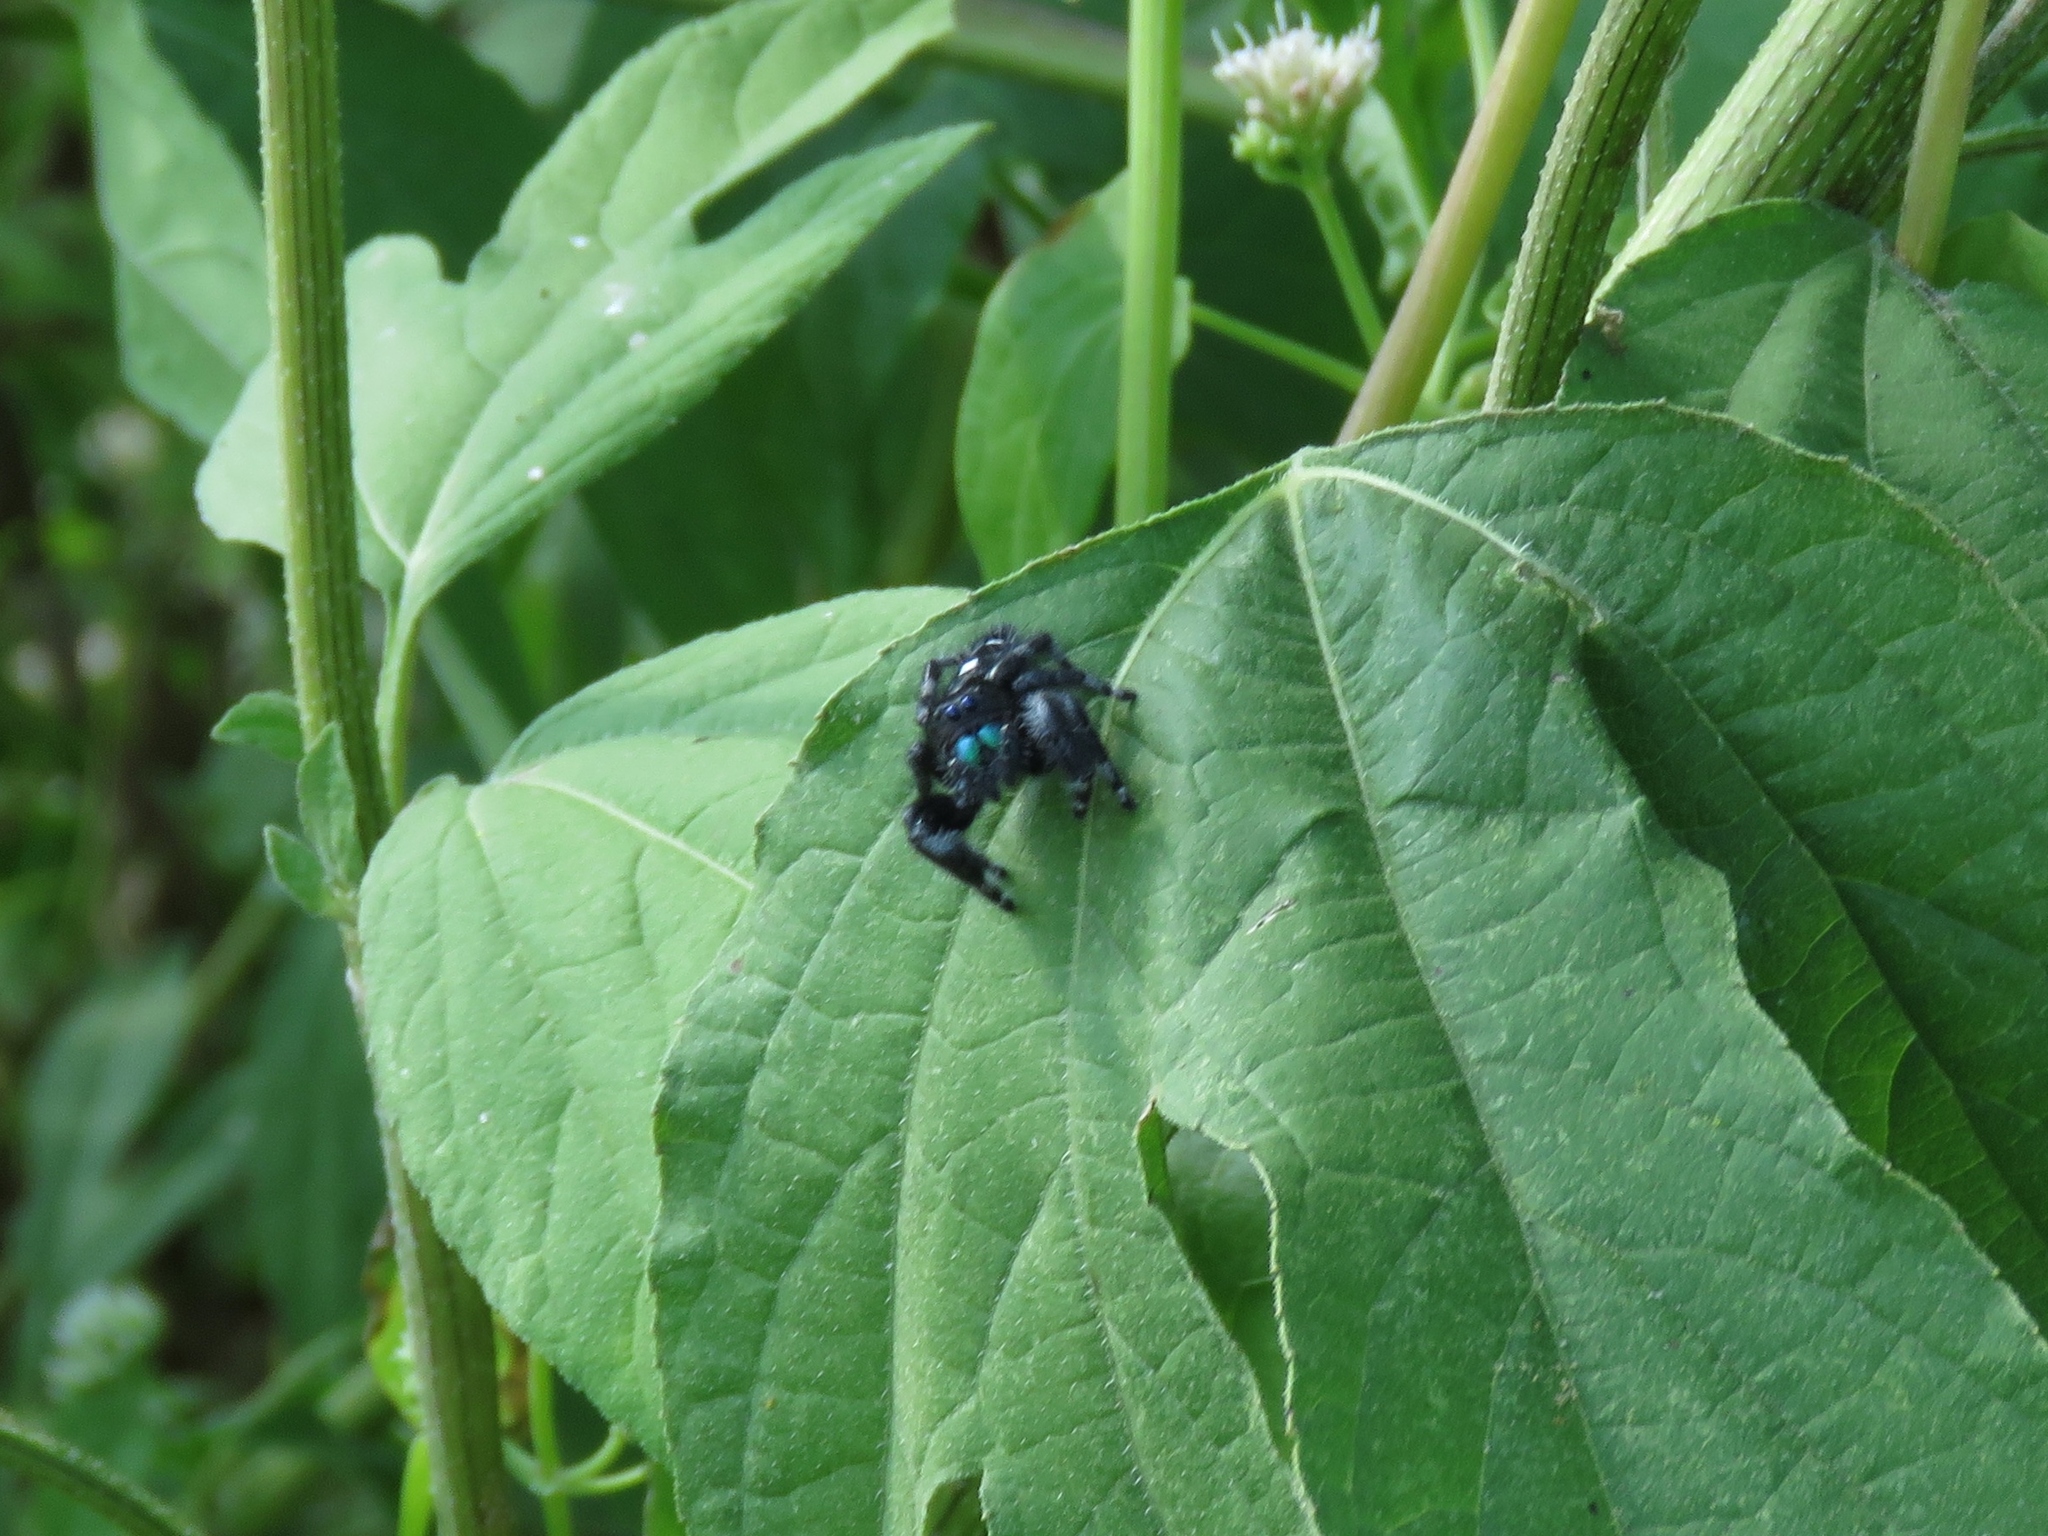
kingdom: Animalia
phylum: Arthropoda
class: Arachnida
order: Araneae
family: Salticidae
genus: Phidippus
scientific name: Phidippus audax
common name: Bold jumper
